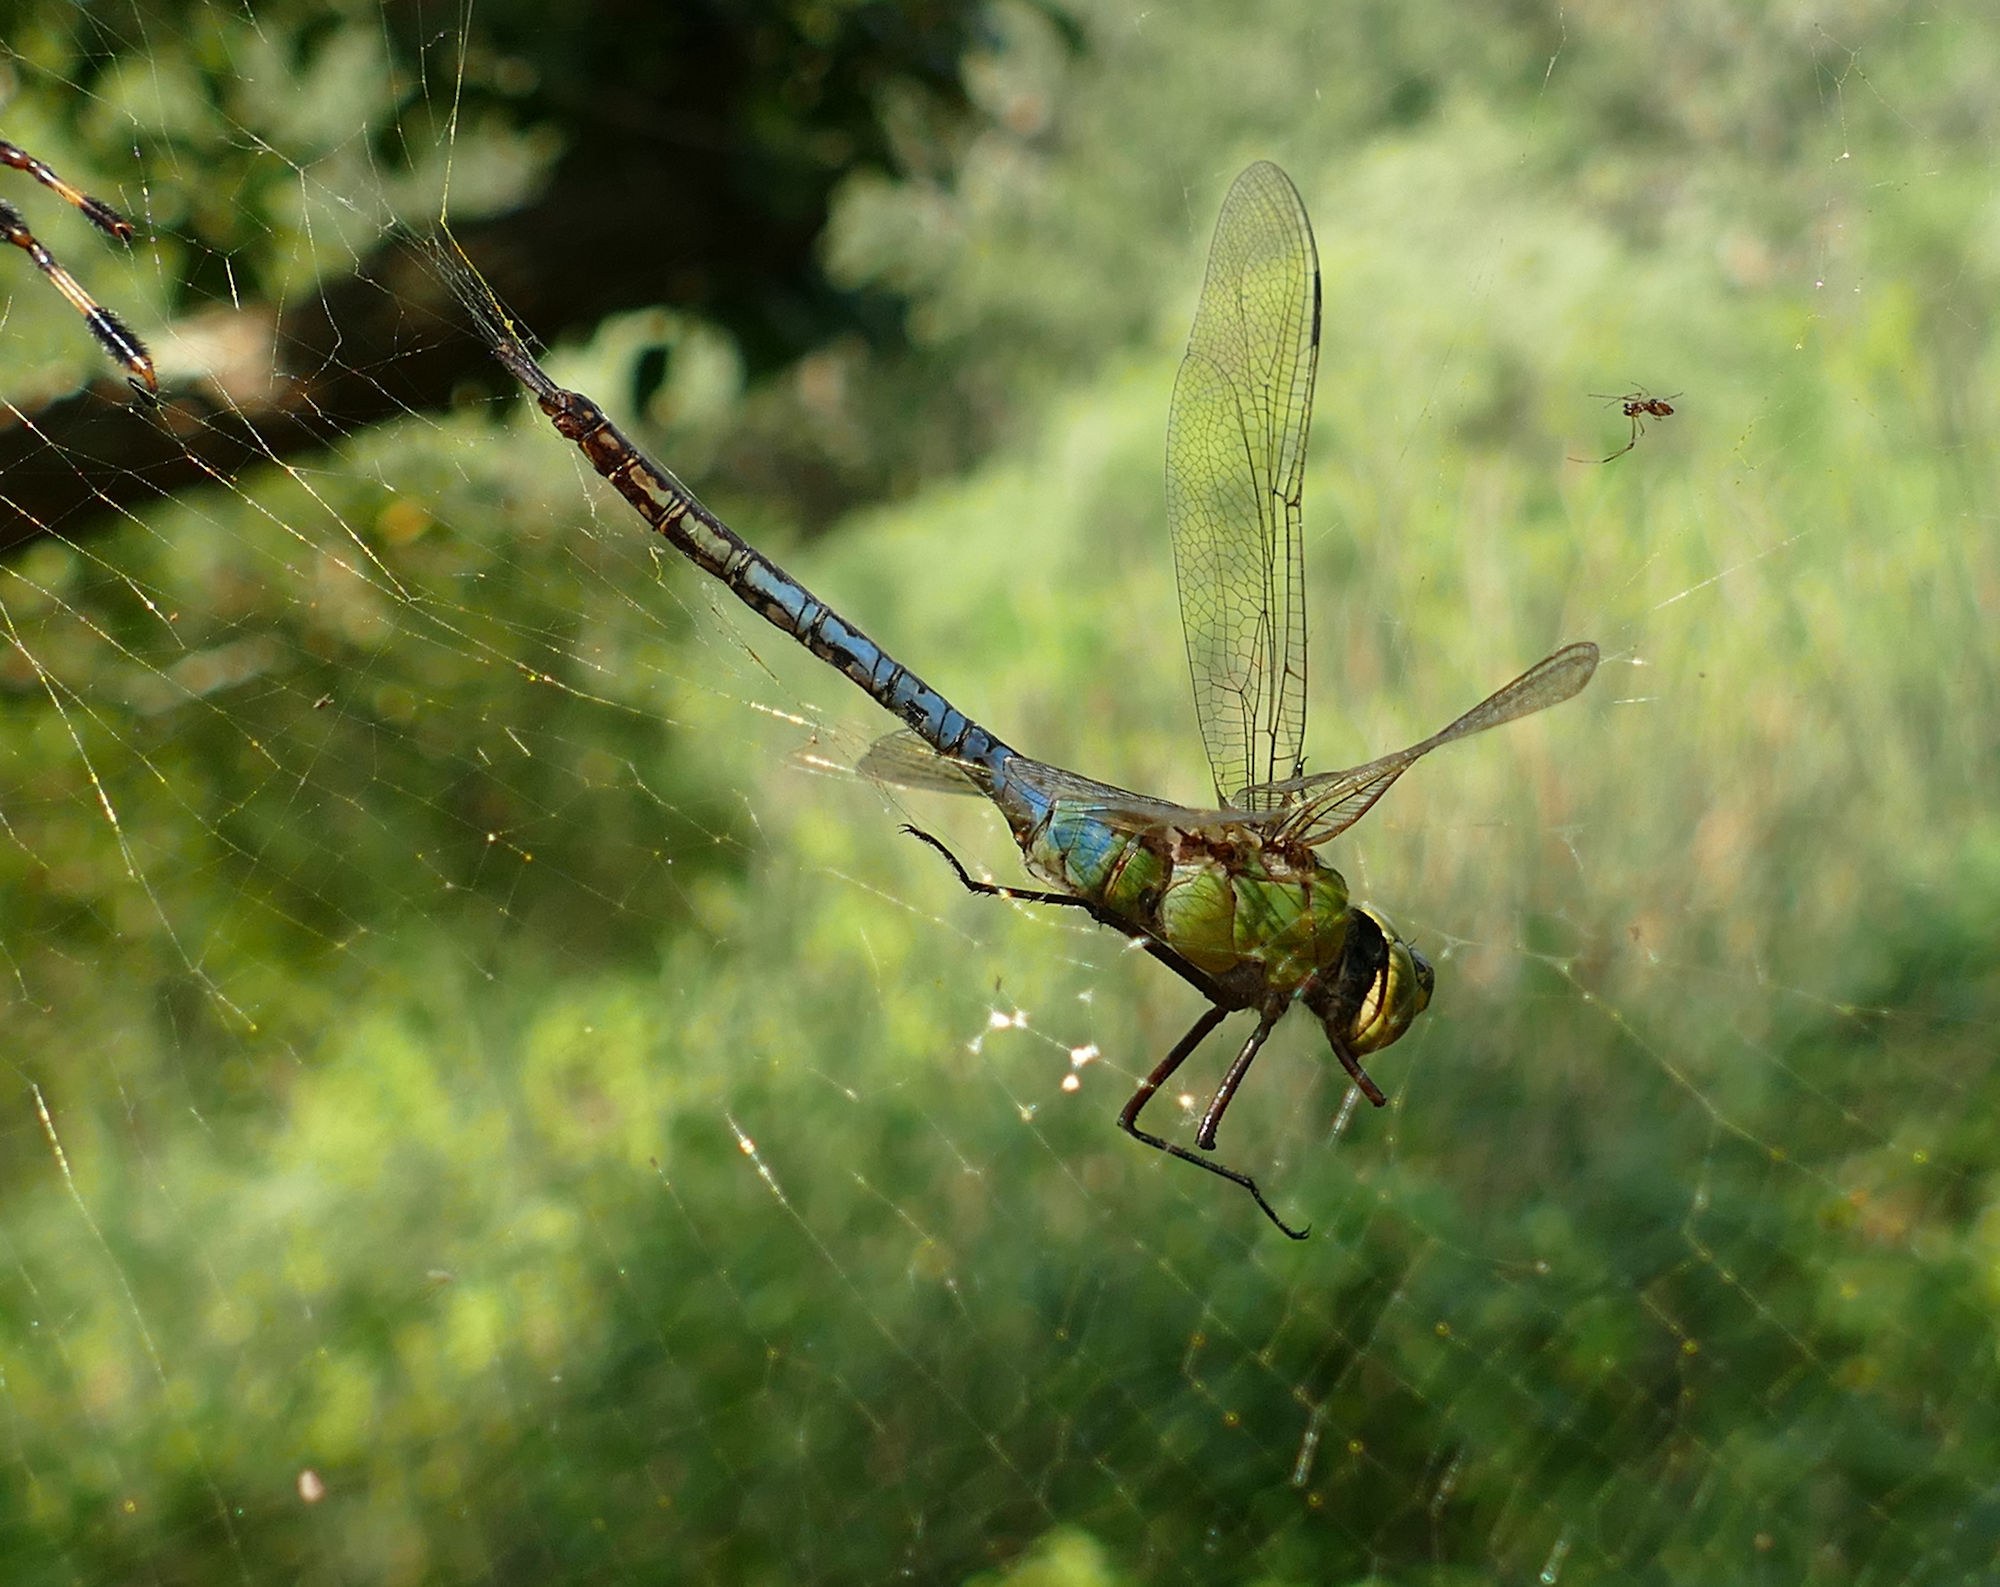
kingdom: Animalia
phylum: Arthropoda
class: Insecta
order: Odonata
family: Aeshnidae
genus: Anax
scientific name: Anax junius
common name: Common green darner
